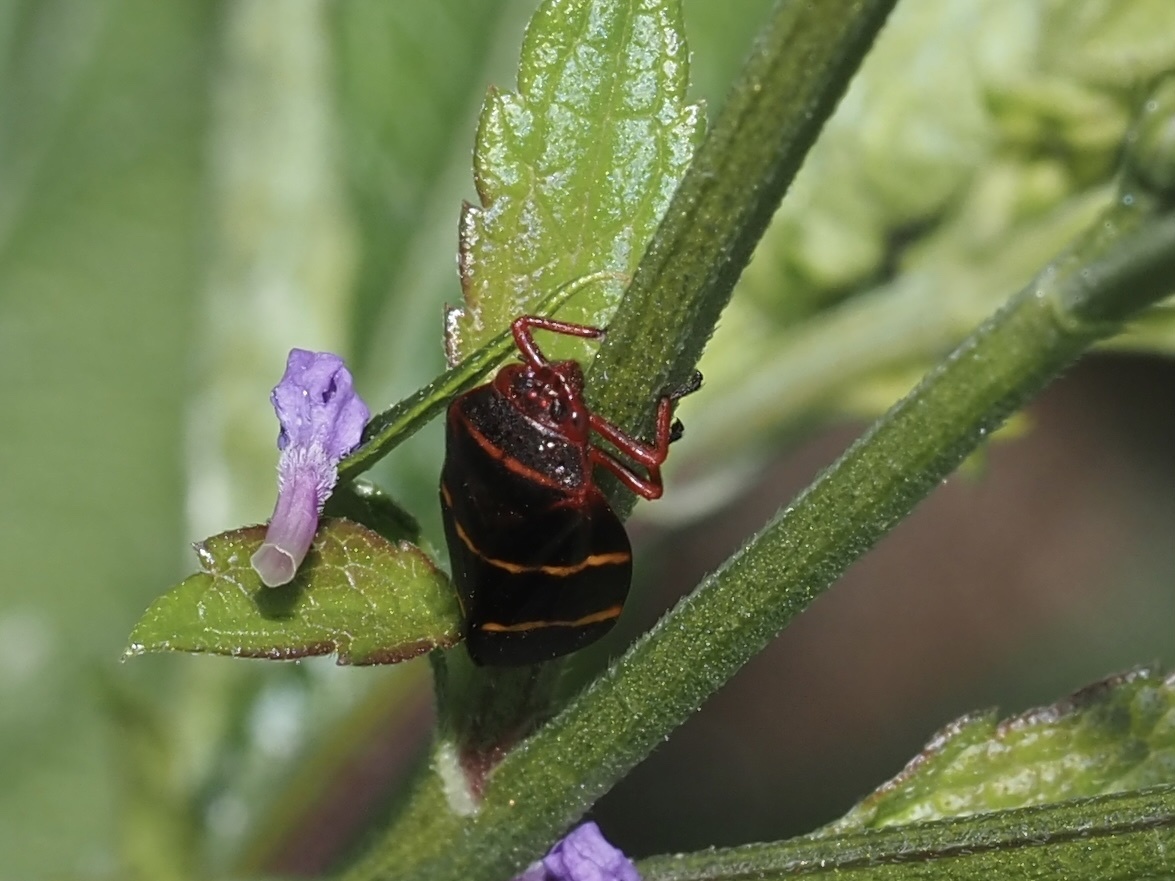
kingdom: Animalia
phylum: Arthropoda
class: Insecta
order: Hemiptera
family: Cercopidae
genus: Prosapia
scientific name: Prosapia bicincta
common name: Twolined spittlebug
